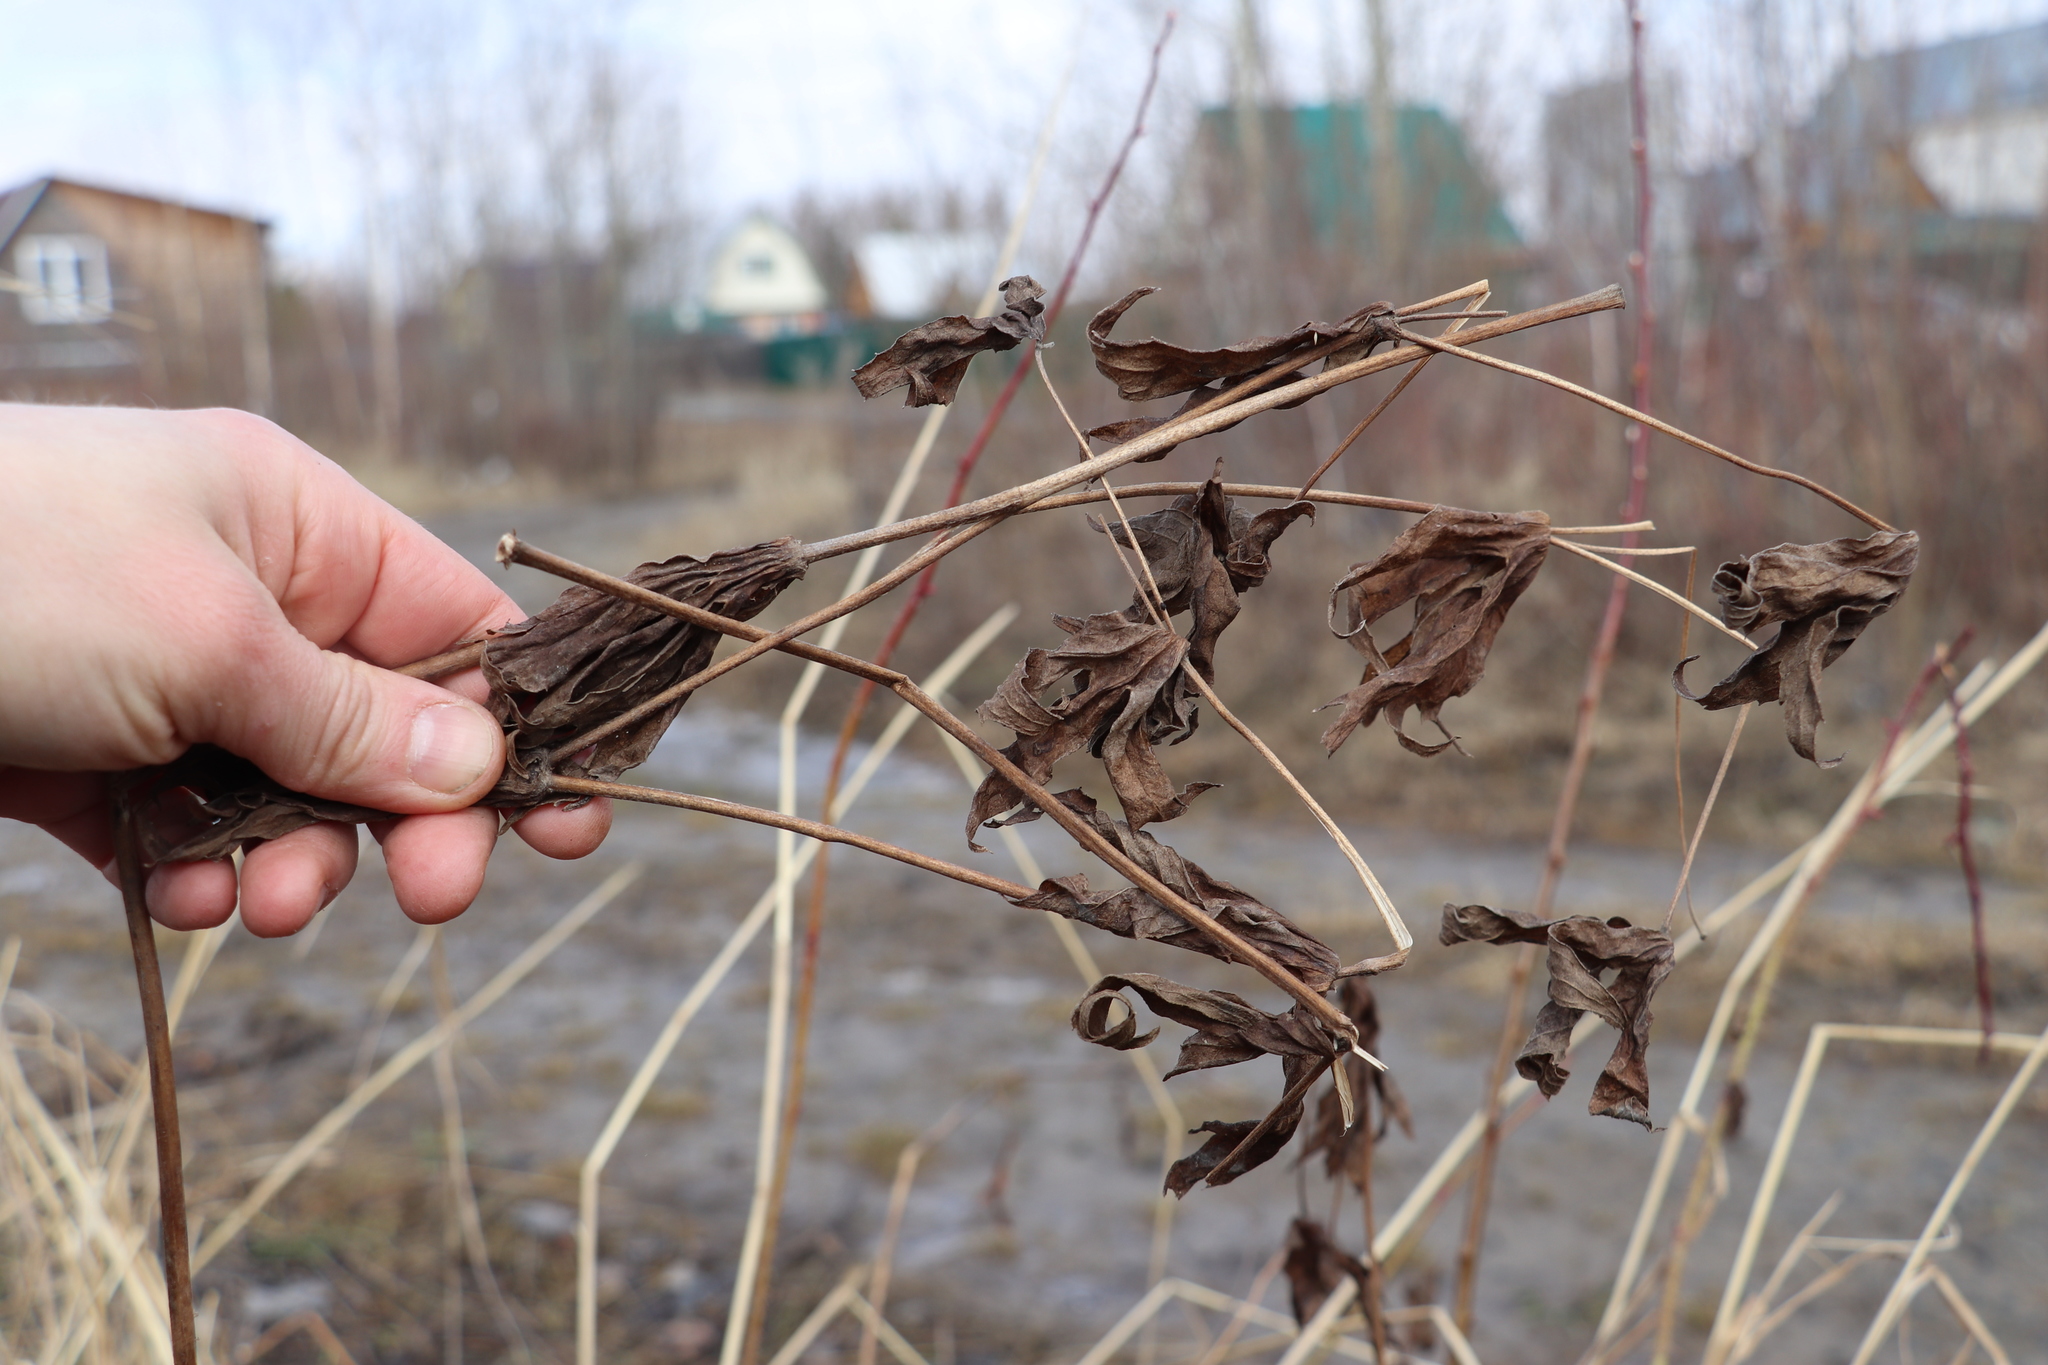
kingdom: Plantae
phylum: Tracheophyta
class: Magnoliopsida
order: Ranunculales
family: Ranunculaceae
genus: Anemonastrum
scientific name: Anemonastrum dichotomum
